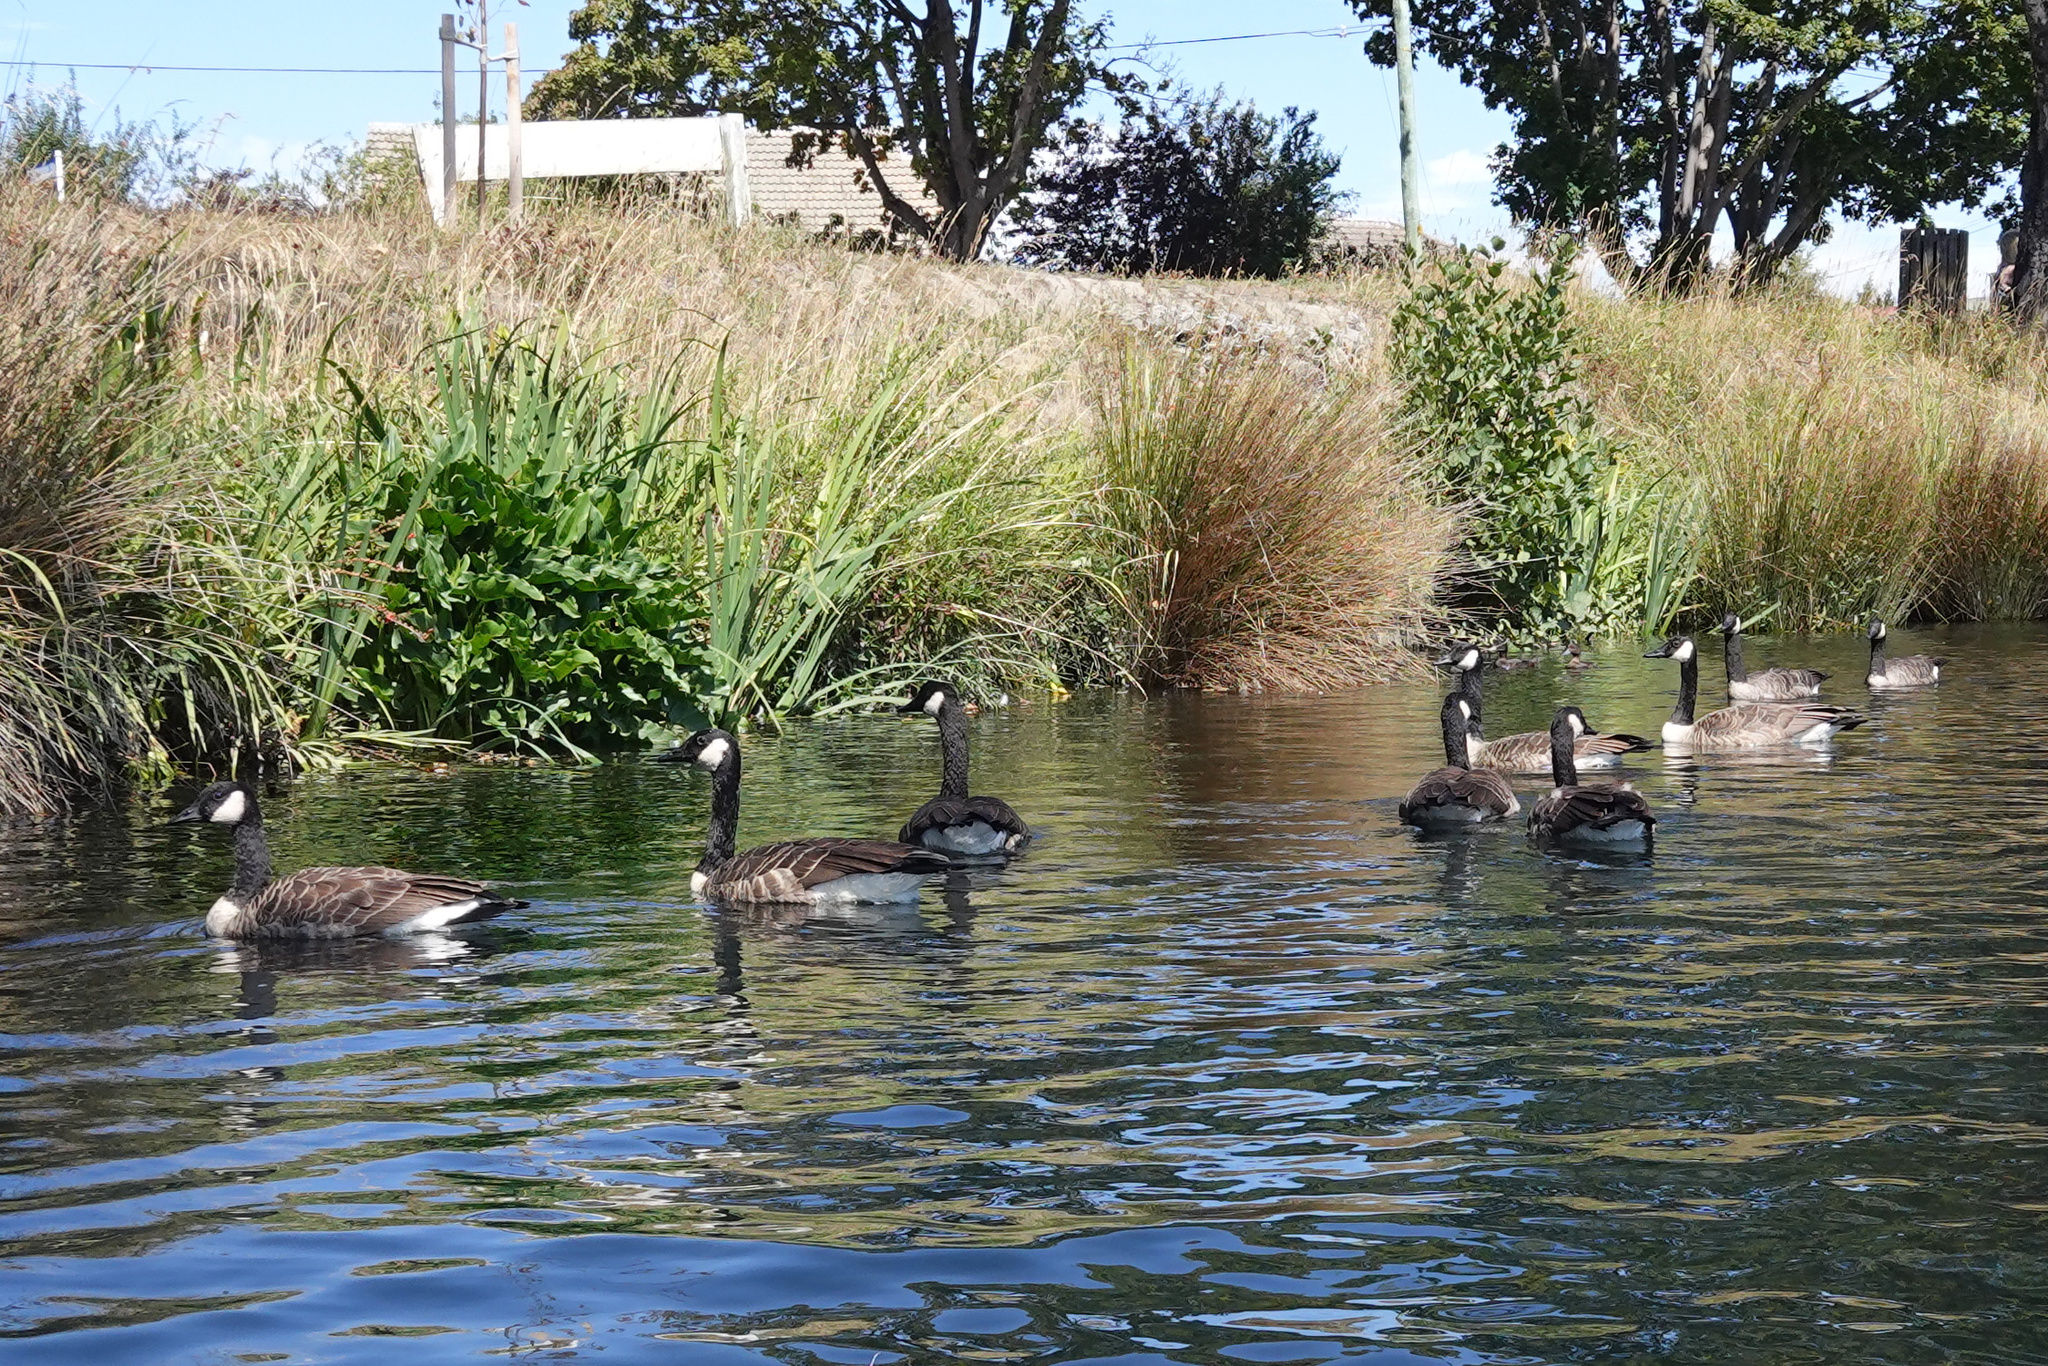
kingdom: Animalia
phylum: Chordata
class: Aves
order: Anseriformes
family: Anatidae
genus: Branta
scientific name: Branta canadensis
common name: Canada goose
